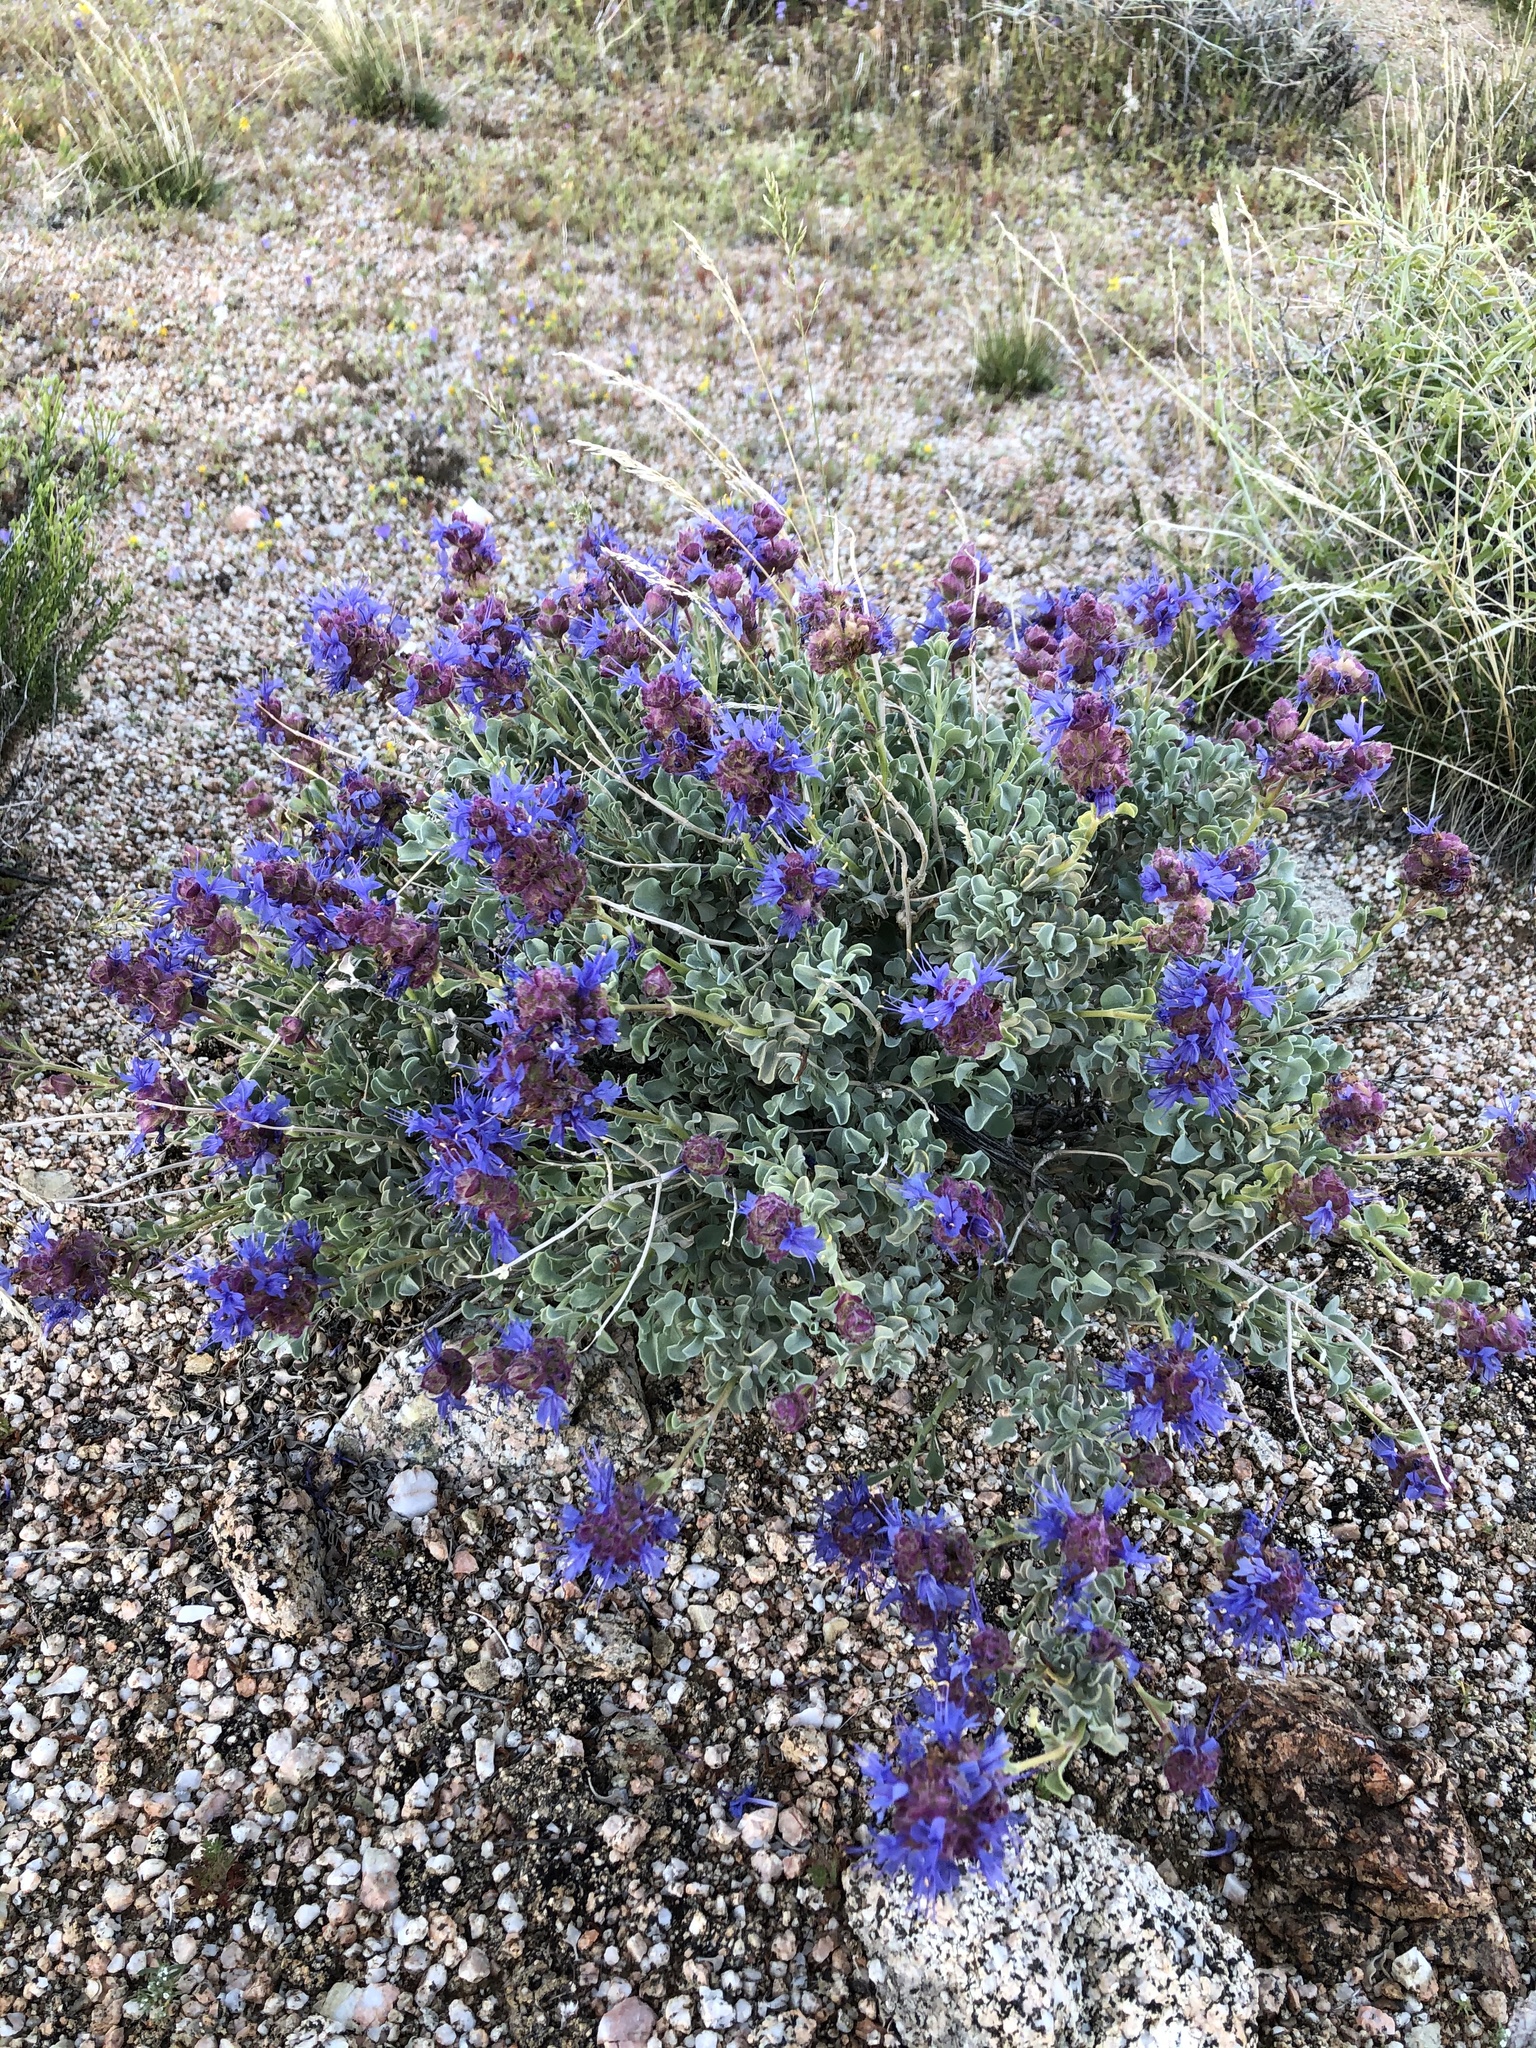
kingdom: Plantae
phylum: Tracheophyta
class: Magnoliopsida
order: Lamiales
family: Lamiaceae
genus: Salvia
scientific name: Salvia dorrii
